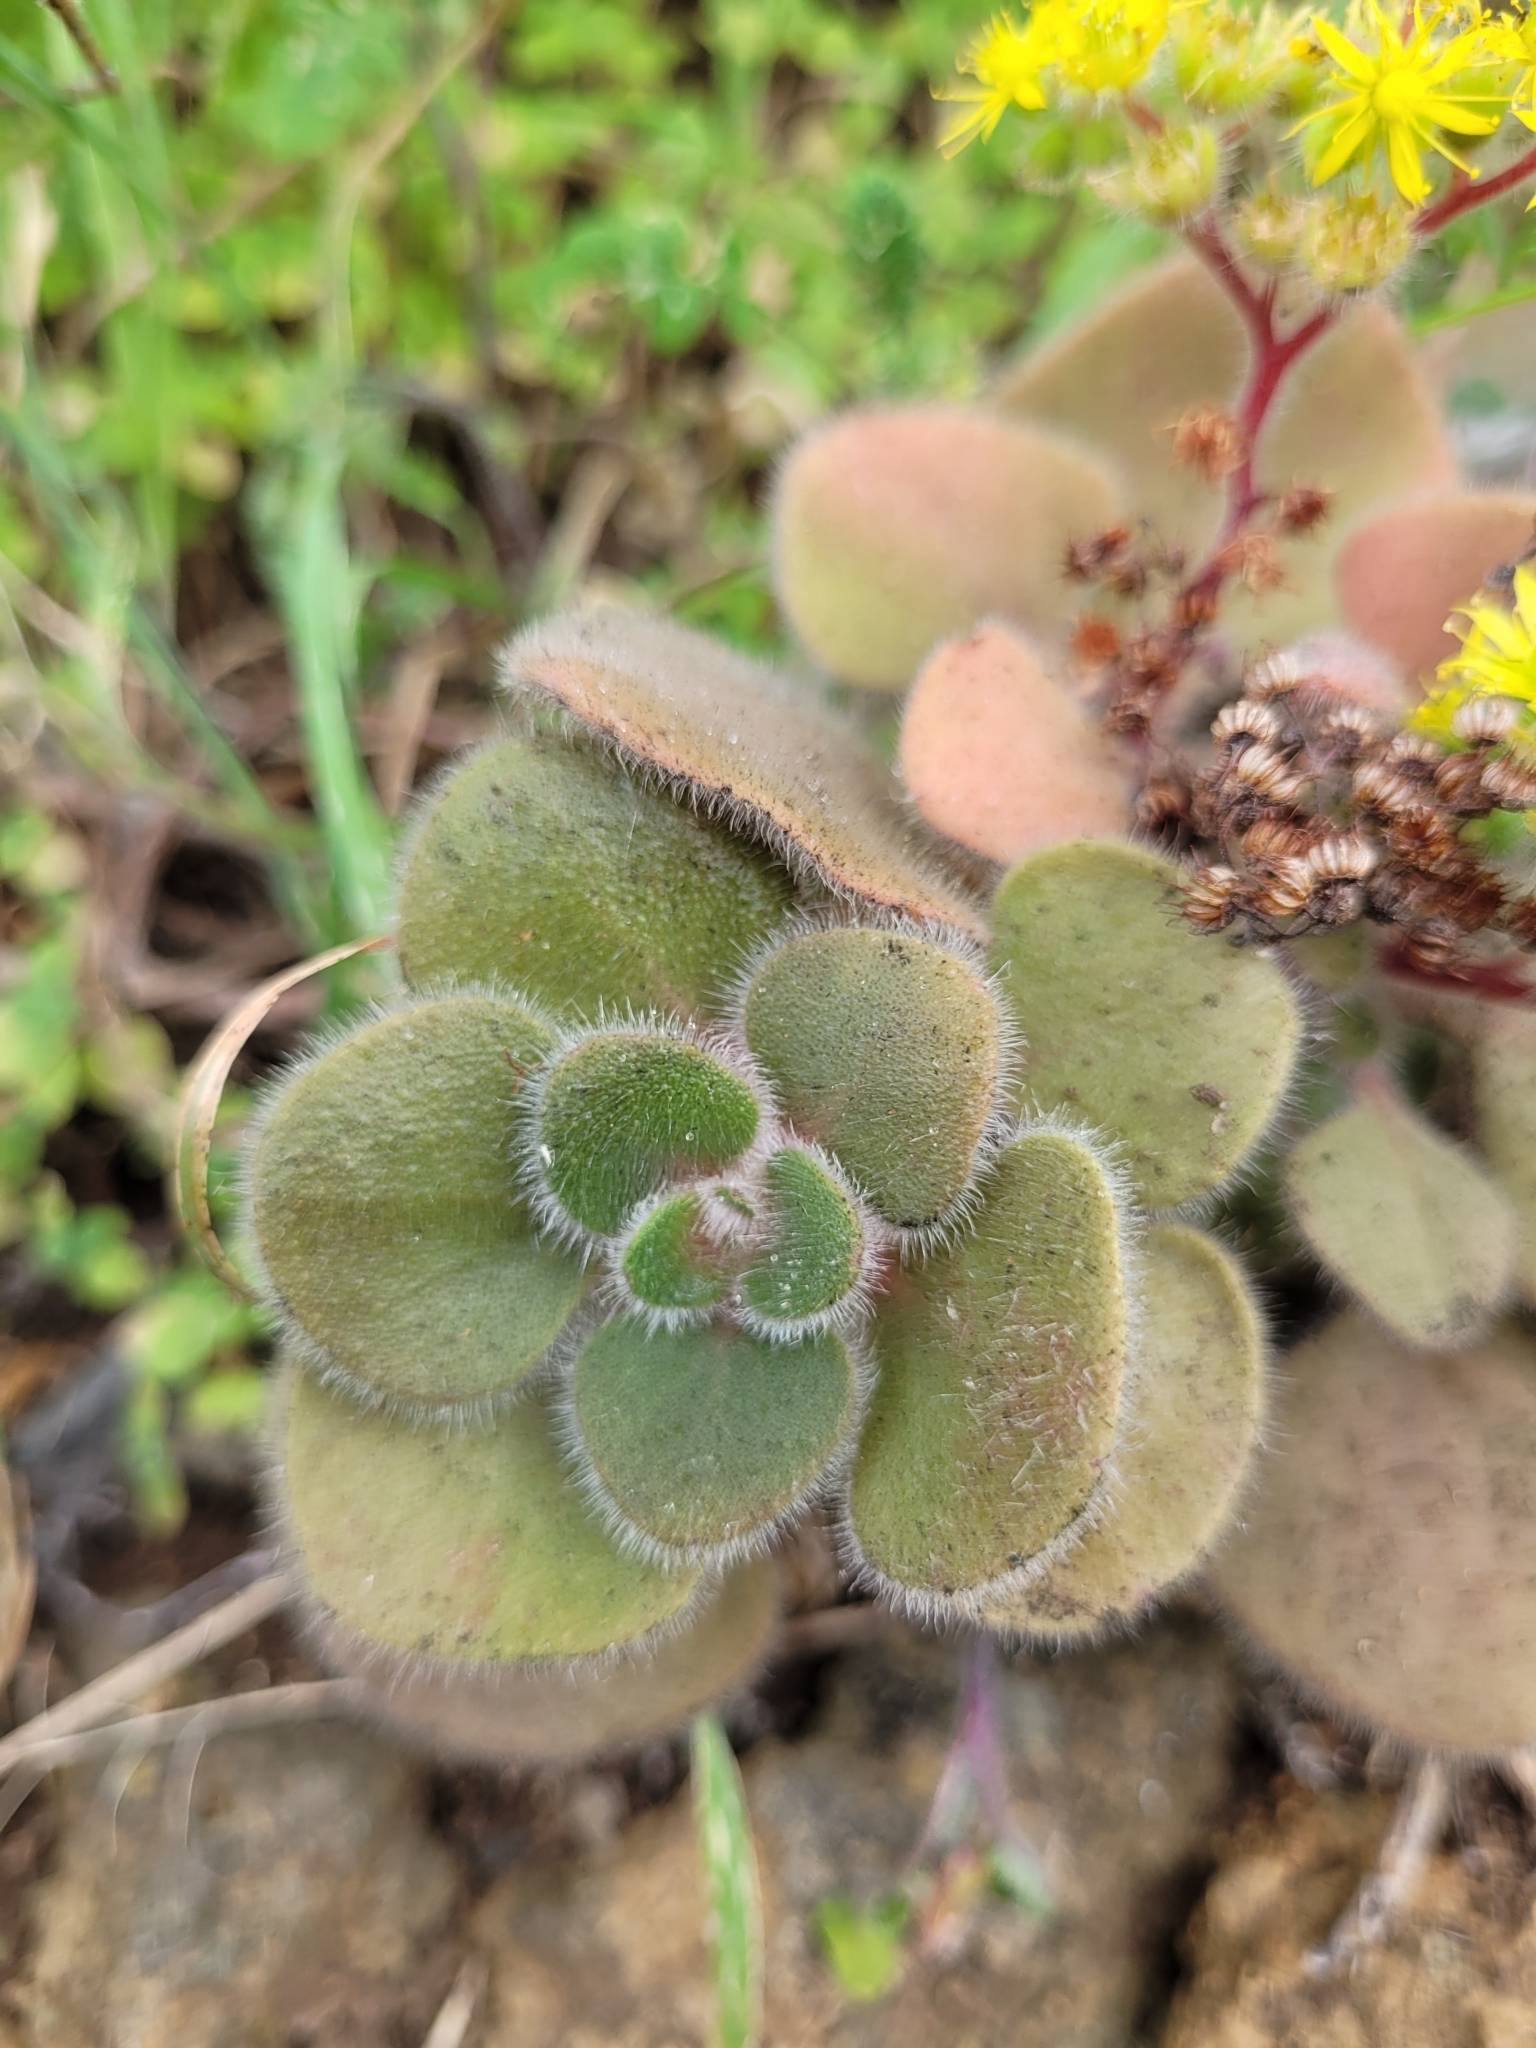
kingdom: Plantae
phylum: Tracheophyta
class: Magnoliopsida
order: Saxifragales
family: Crassulaceae
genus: Aichryson
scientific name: Aichryson laxum
